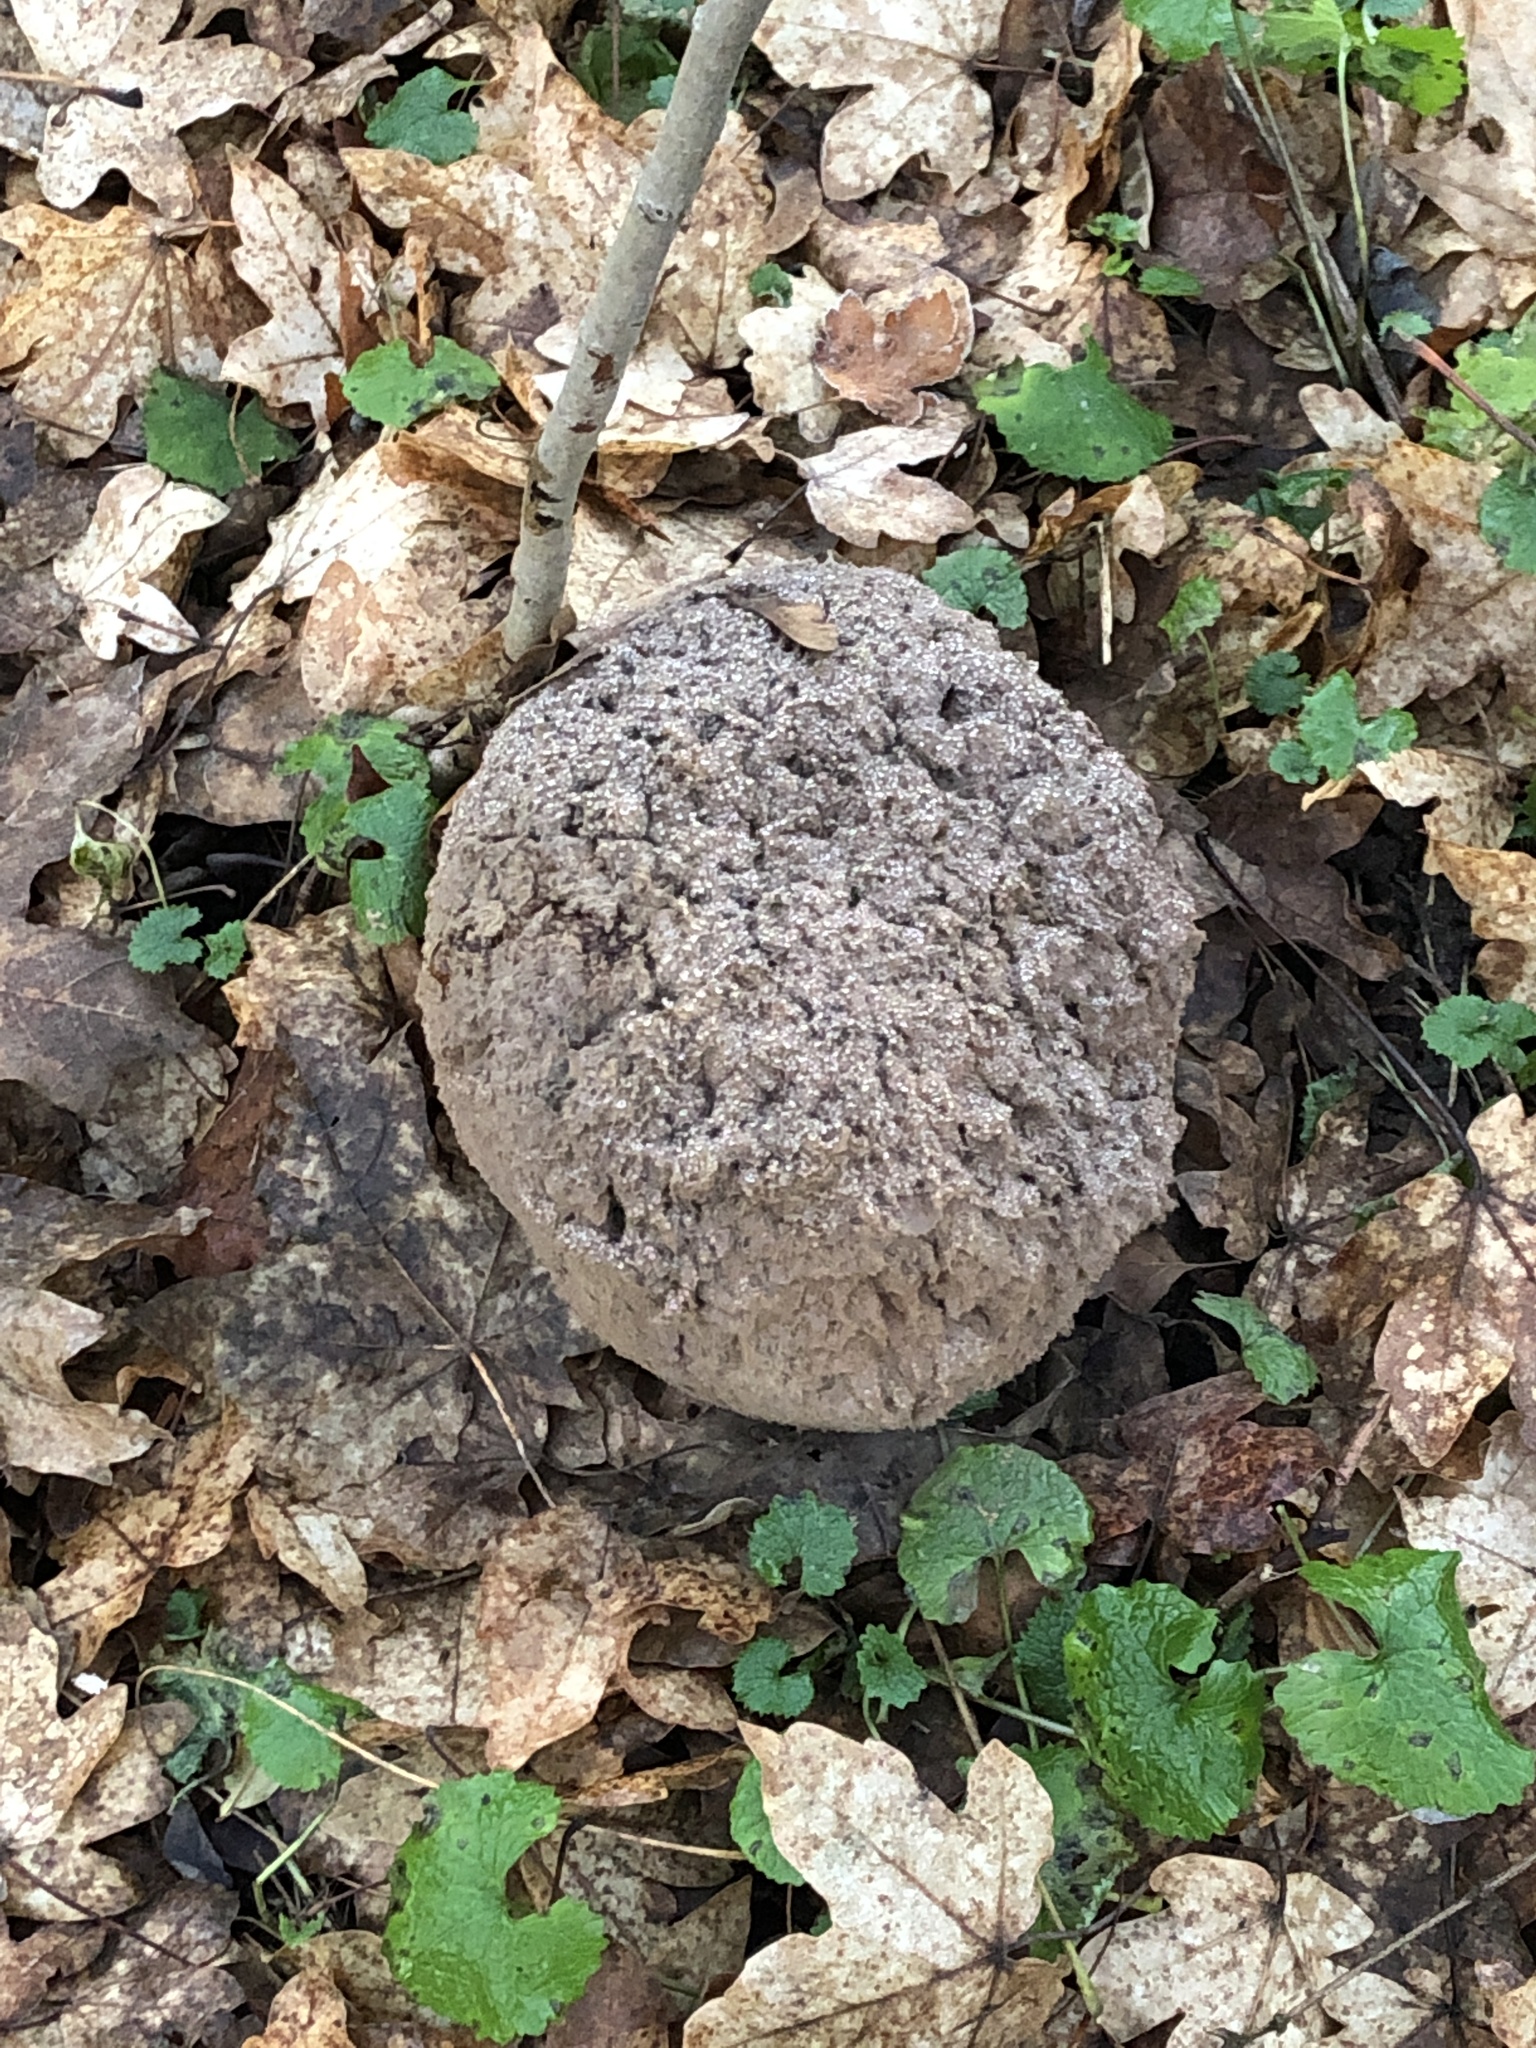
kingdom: Fungi
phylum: Basidiomycota
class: Agaricomycetes
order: Agaricales
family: Lycoperdaceae
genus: Calvatia
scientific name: Calvatia gigantea
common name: Giant puffball
